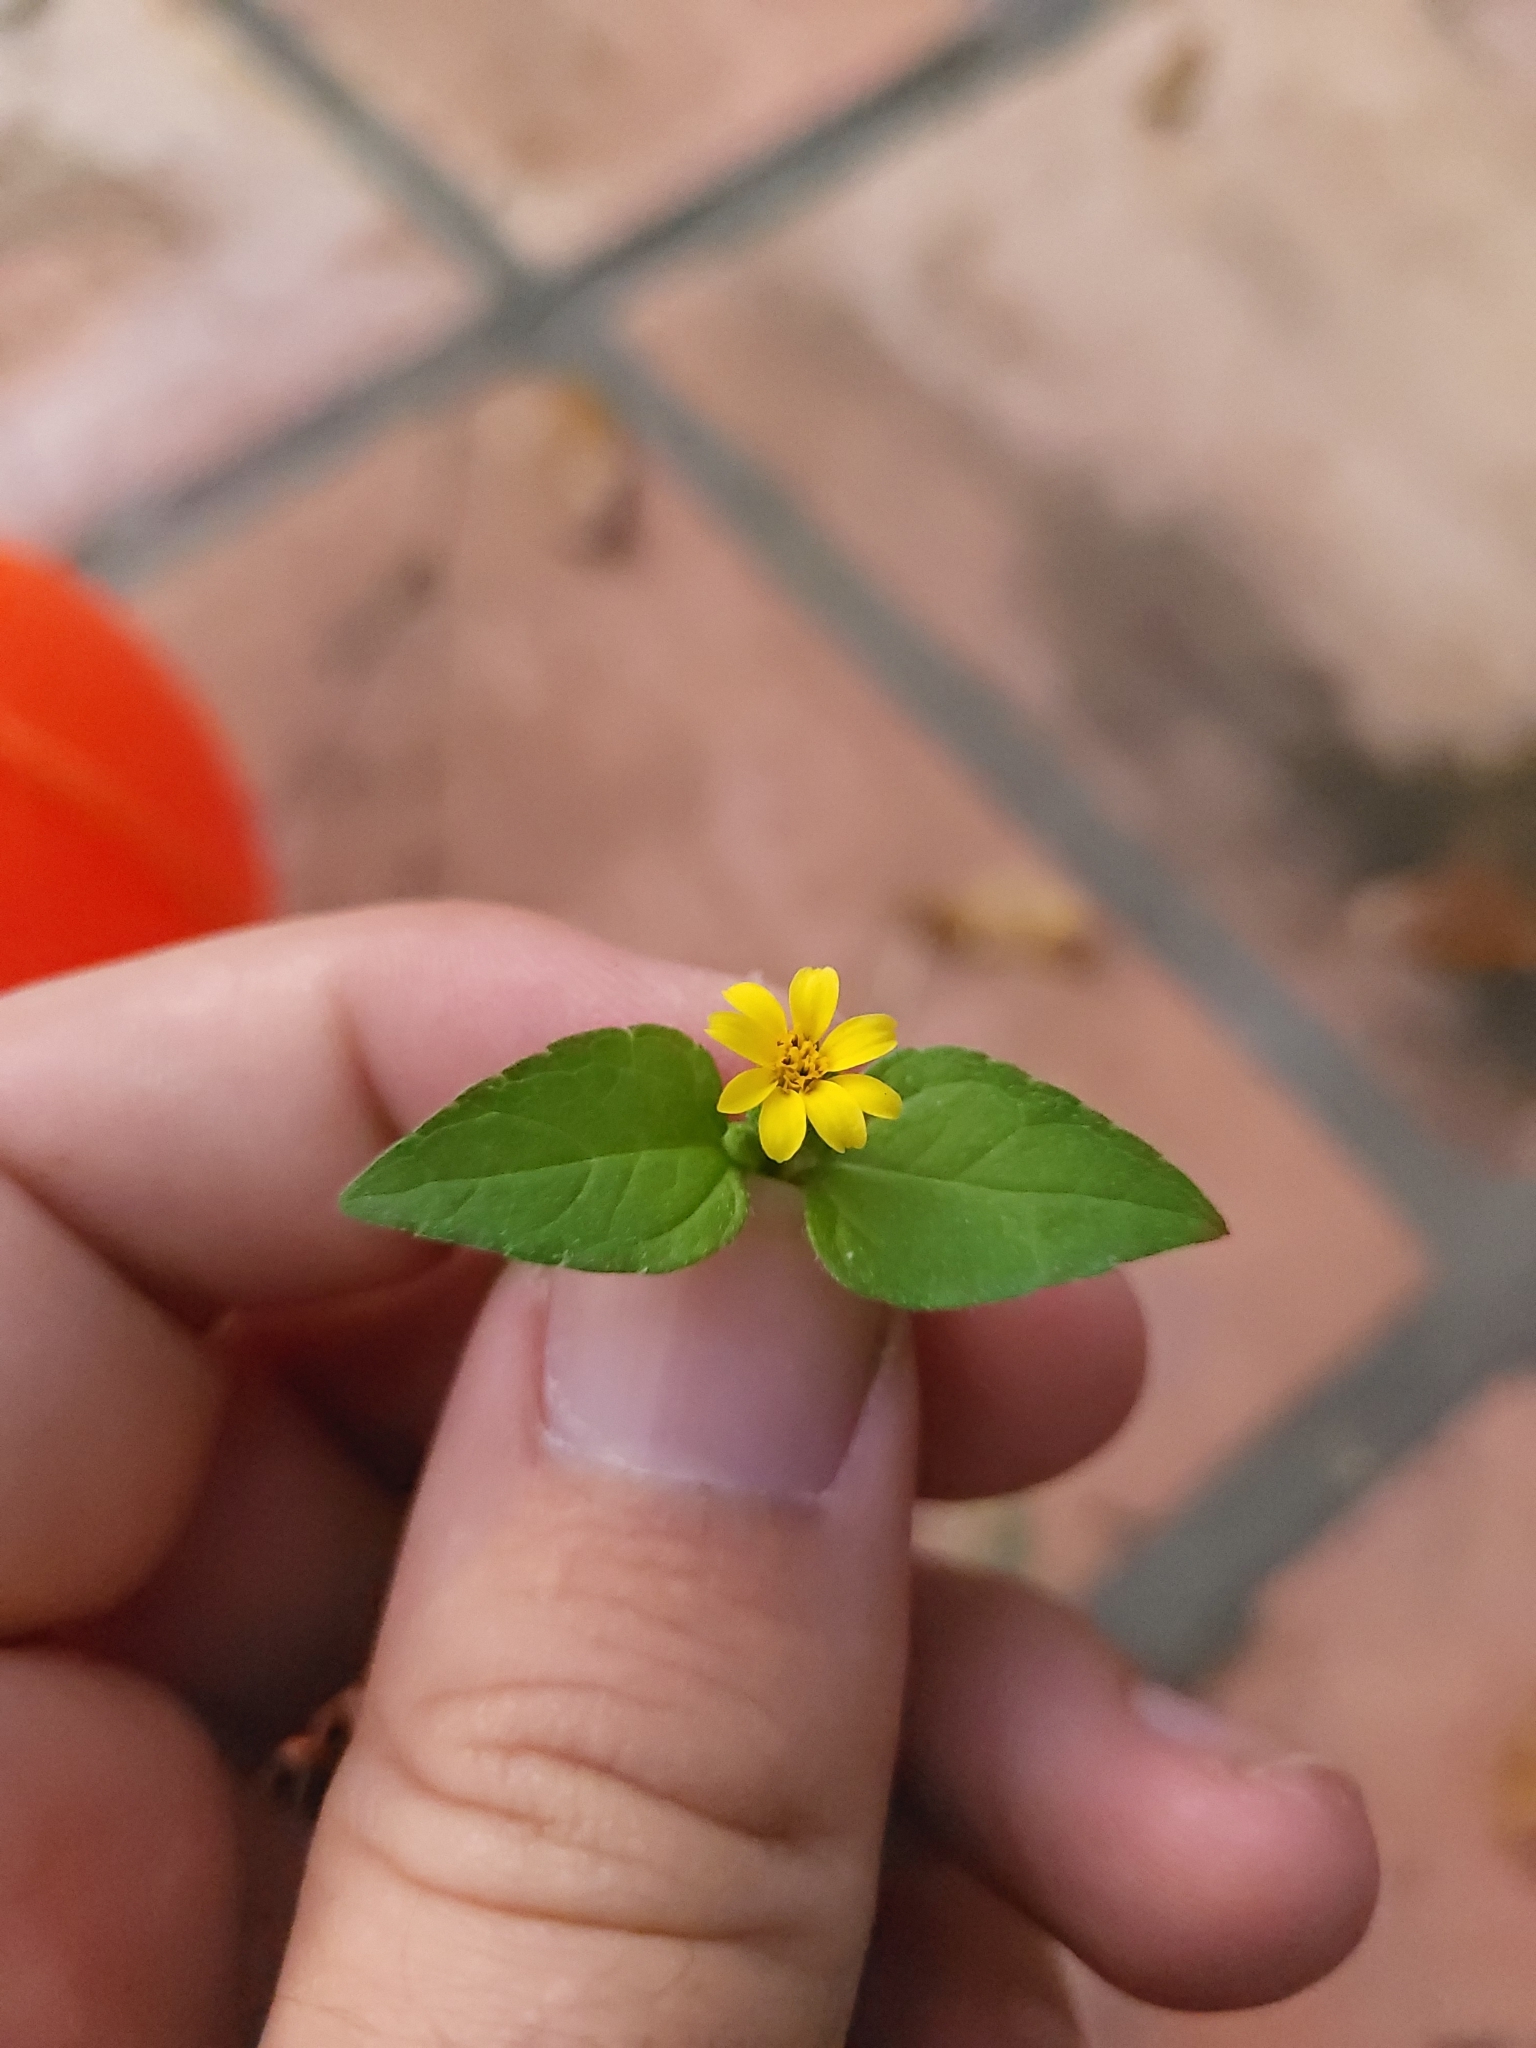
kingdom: Plantae
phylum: Tracheophyta
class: Magnoliopsida
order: Asterales
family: Asteraceae
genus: Calyptocarpus
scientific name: Calyptocarpus vialis
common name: Straggler daisy
